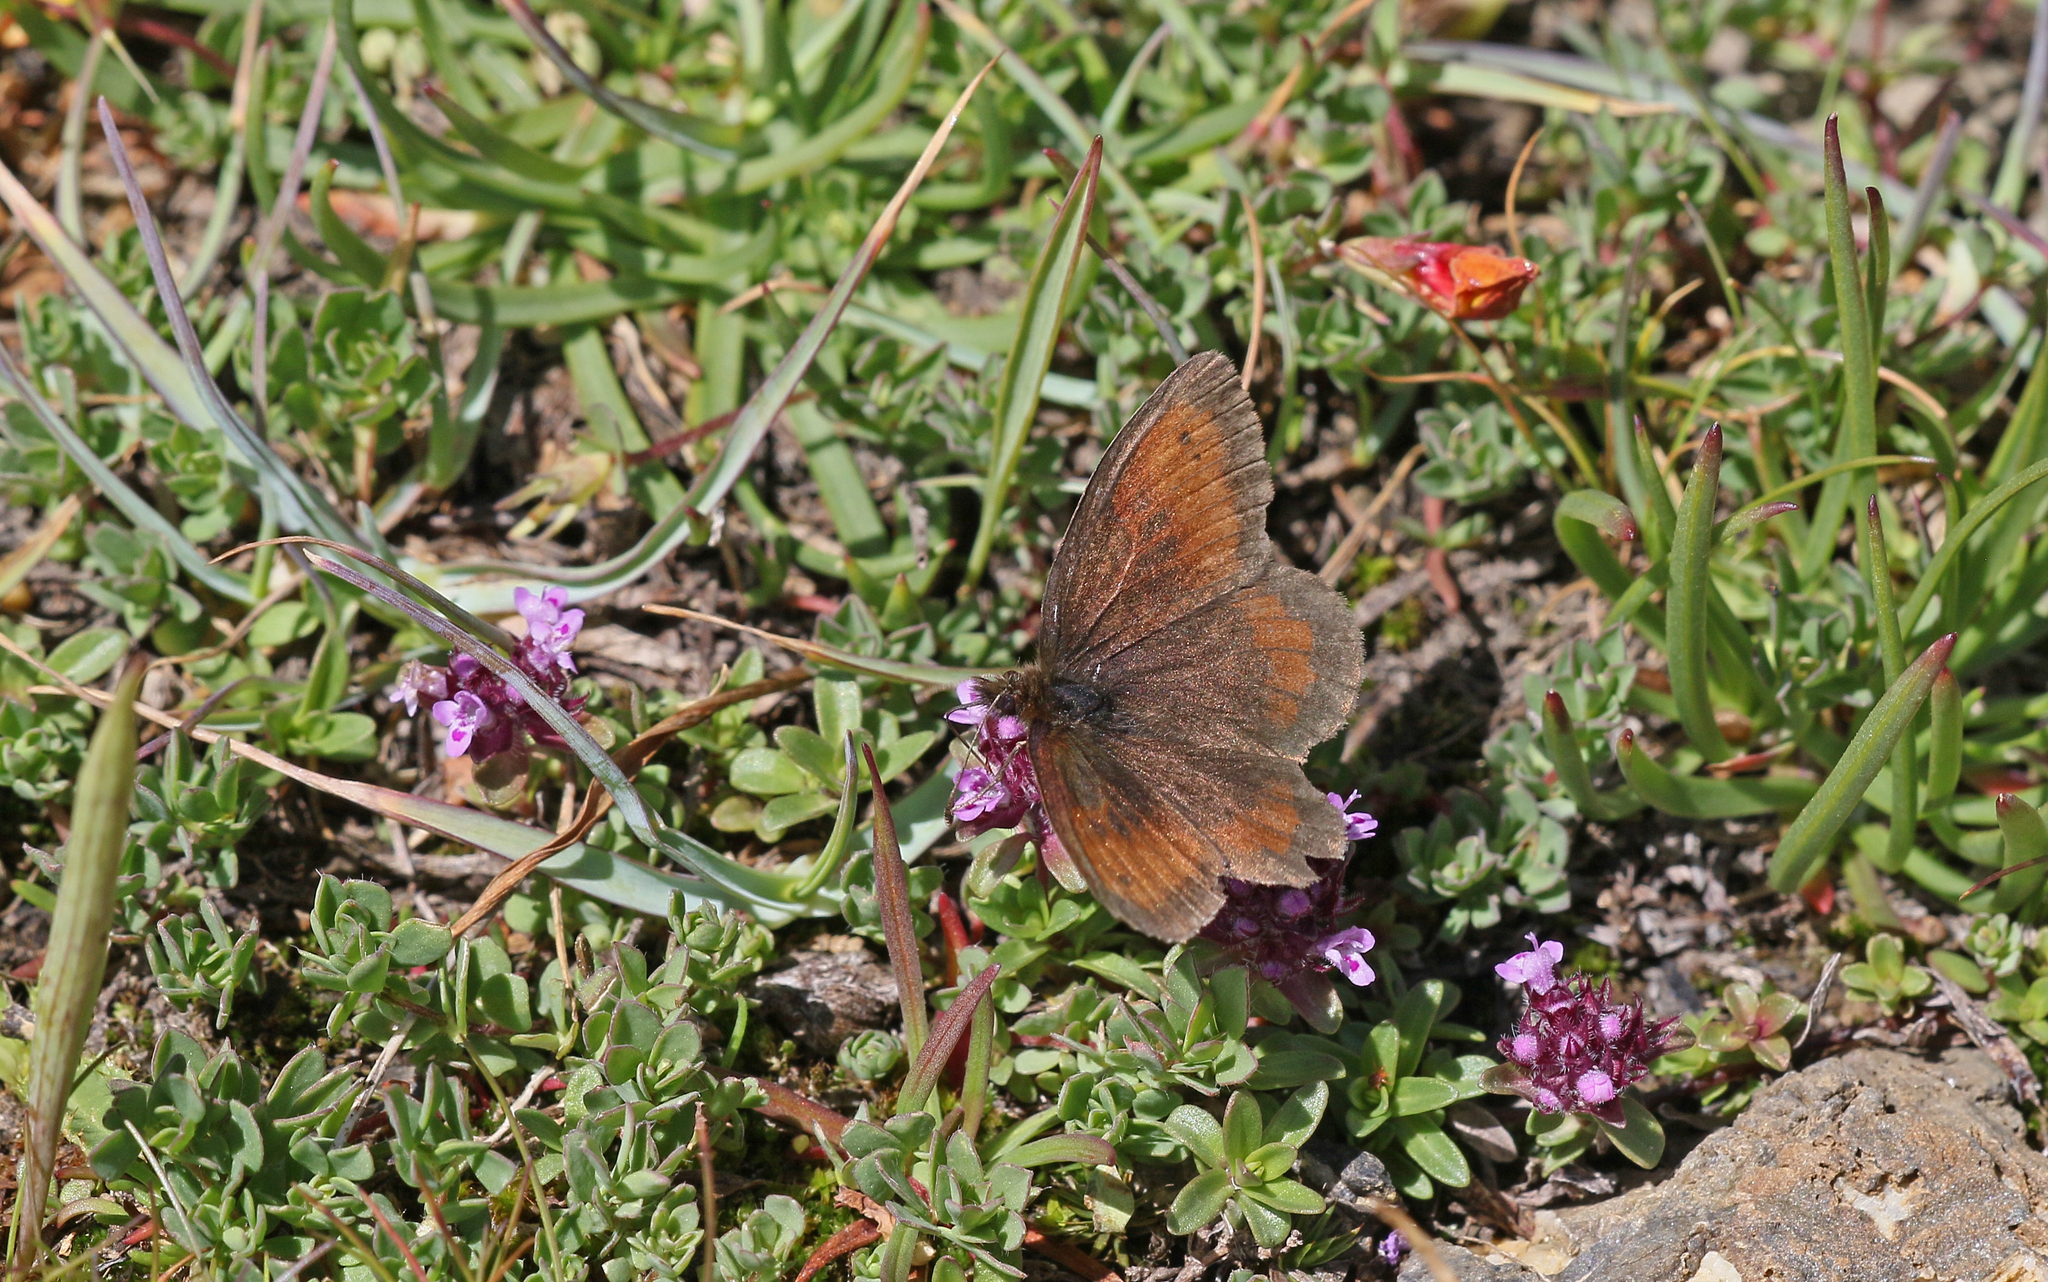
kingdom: Animalia
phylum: Arthropoda
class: Insecta
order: Lepidoptera
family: Nymphalidae
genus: Erebia
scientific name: Erebia mnestra
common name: Mnestra’s ringlet
